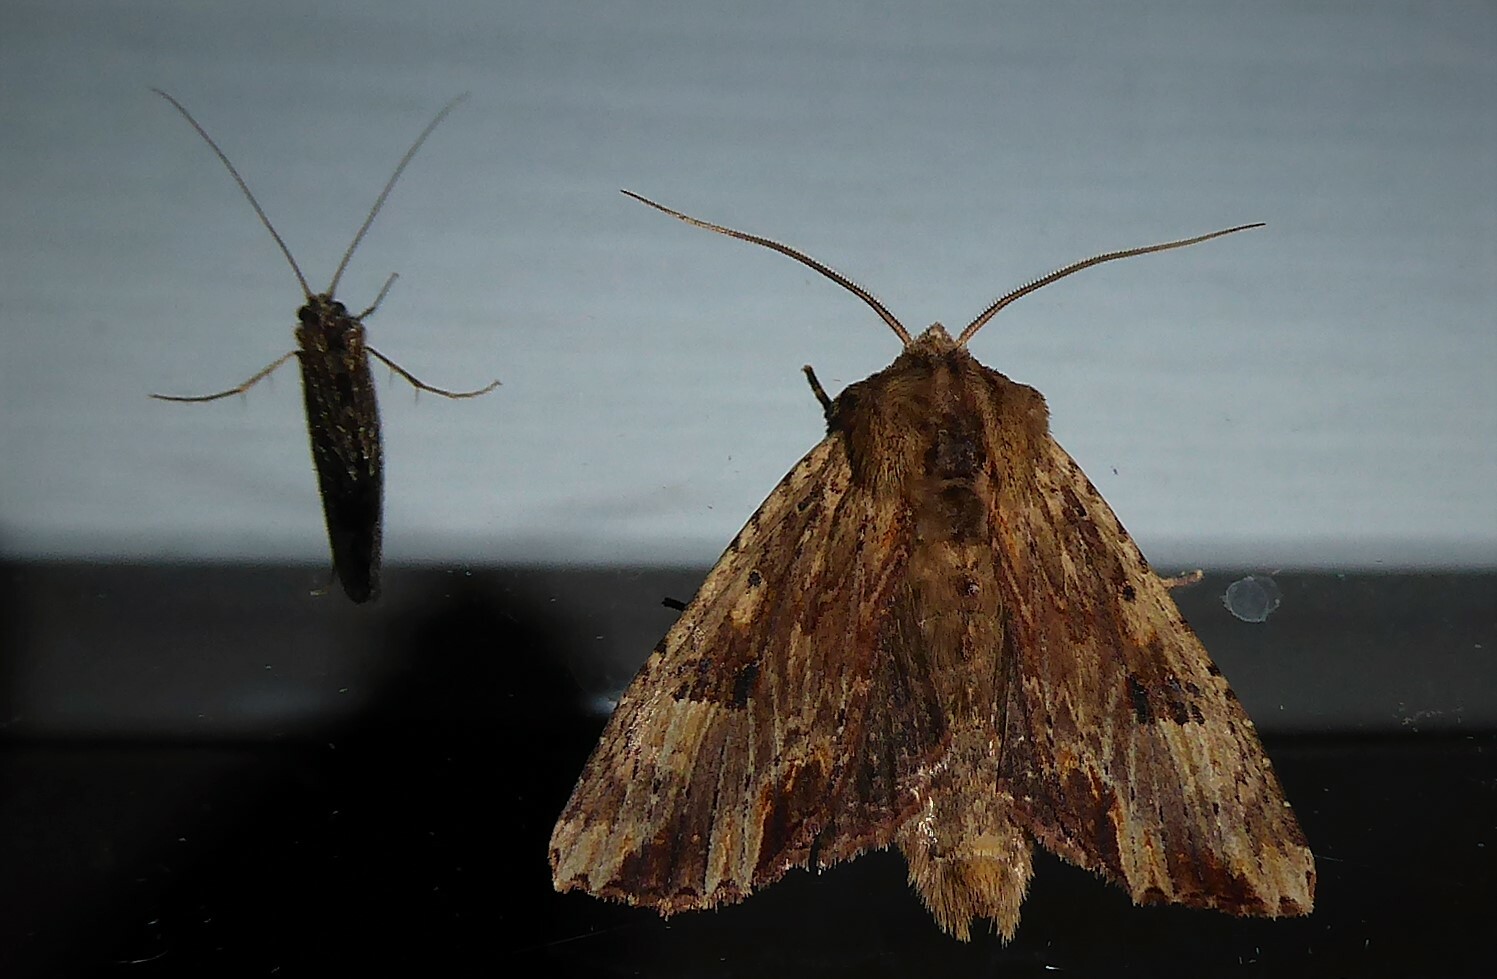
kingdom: Animalia
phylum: Arthropoda
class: Insecta
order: Lepidoptera
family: Noctuidae
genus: Ichneutica
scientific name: Ichneutica
